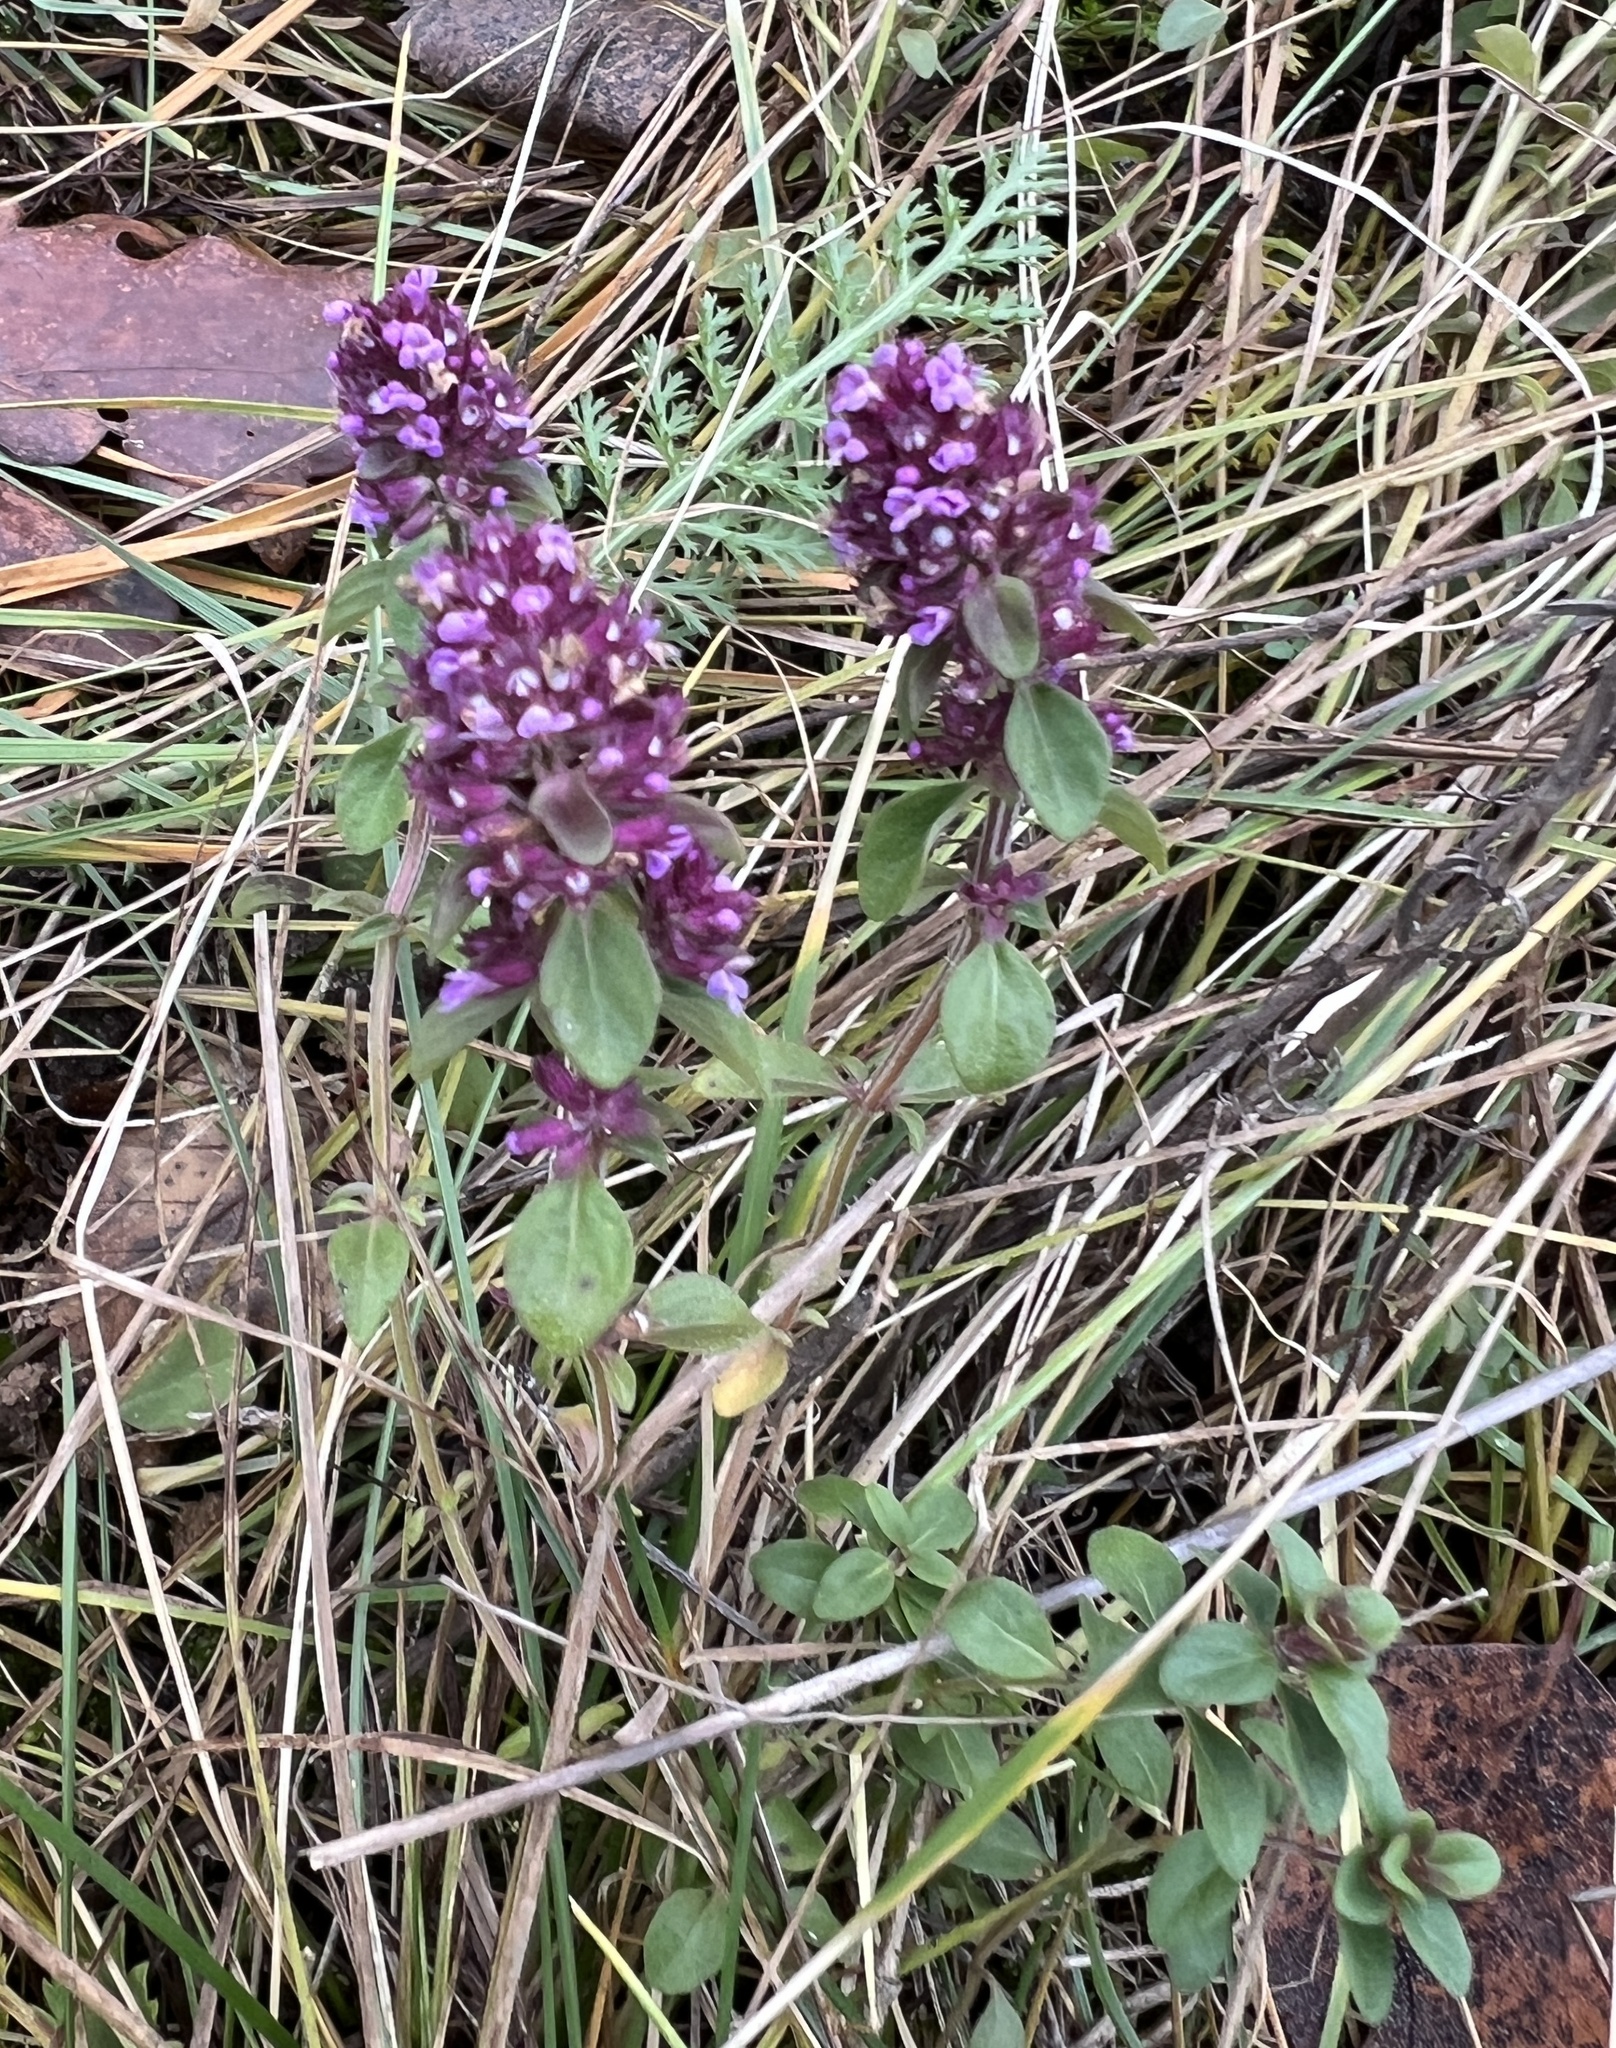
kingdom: Plantae
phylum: Tracheophyta
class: Magnoliopsida
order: Lamiales
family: Lamiaceae
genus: Thymus
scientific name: Thymus pulegioides
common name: Large thyme
